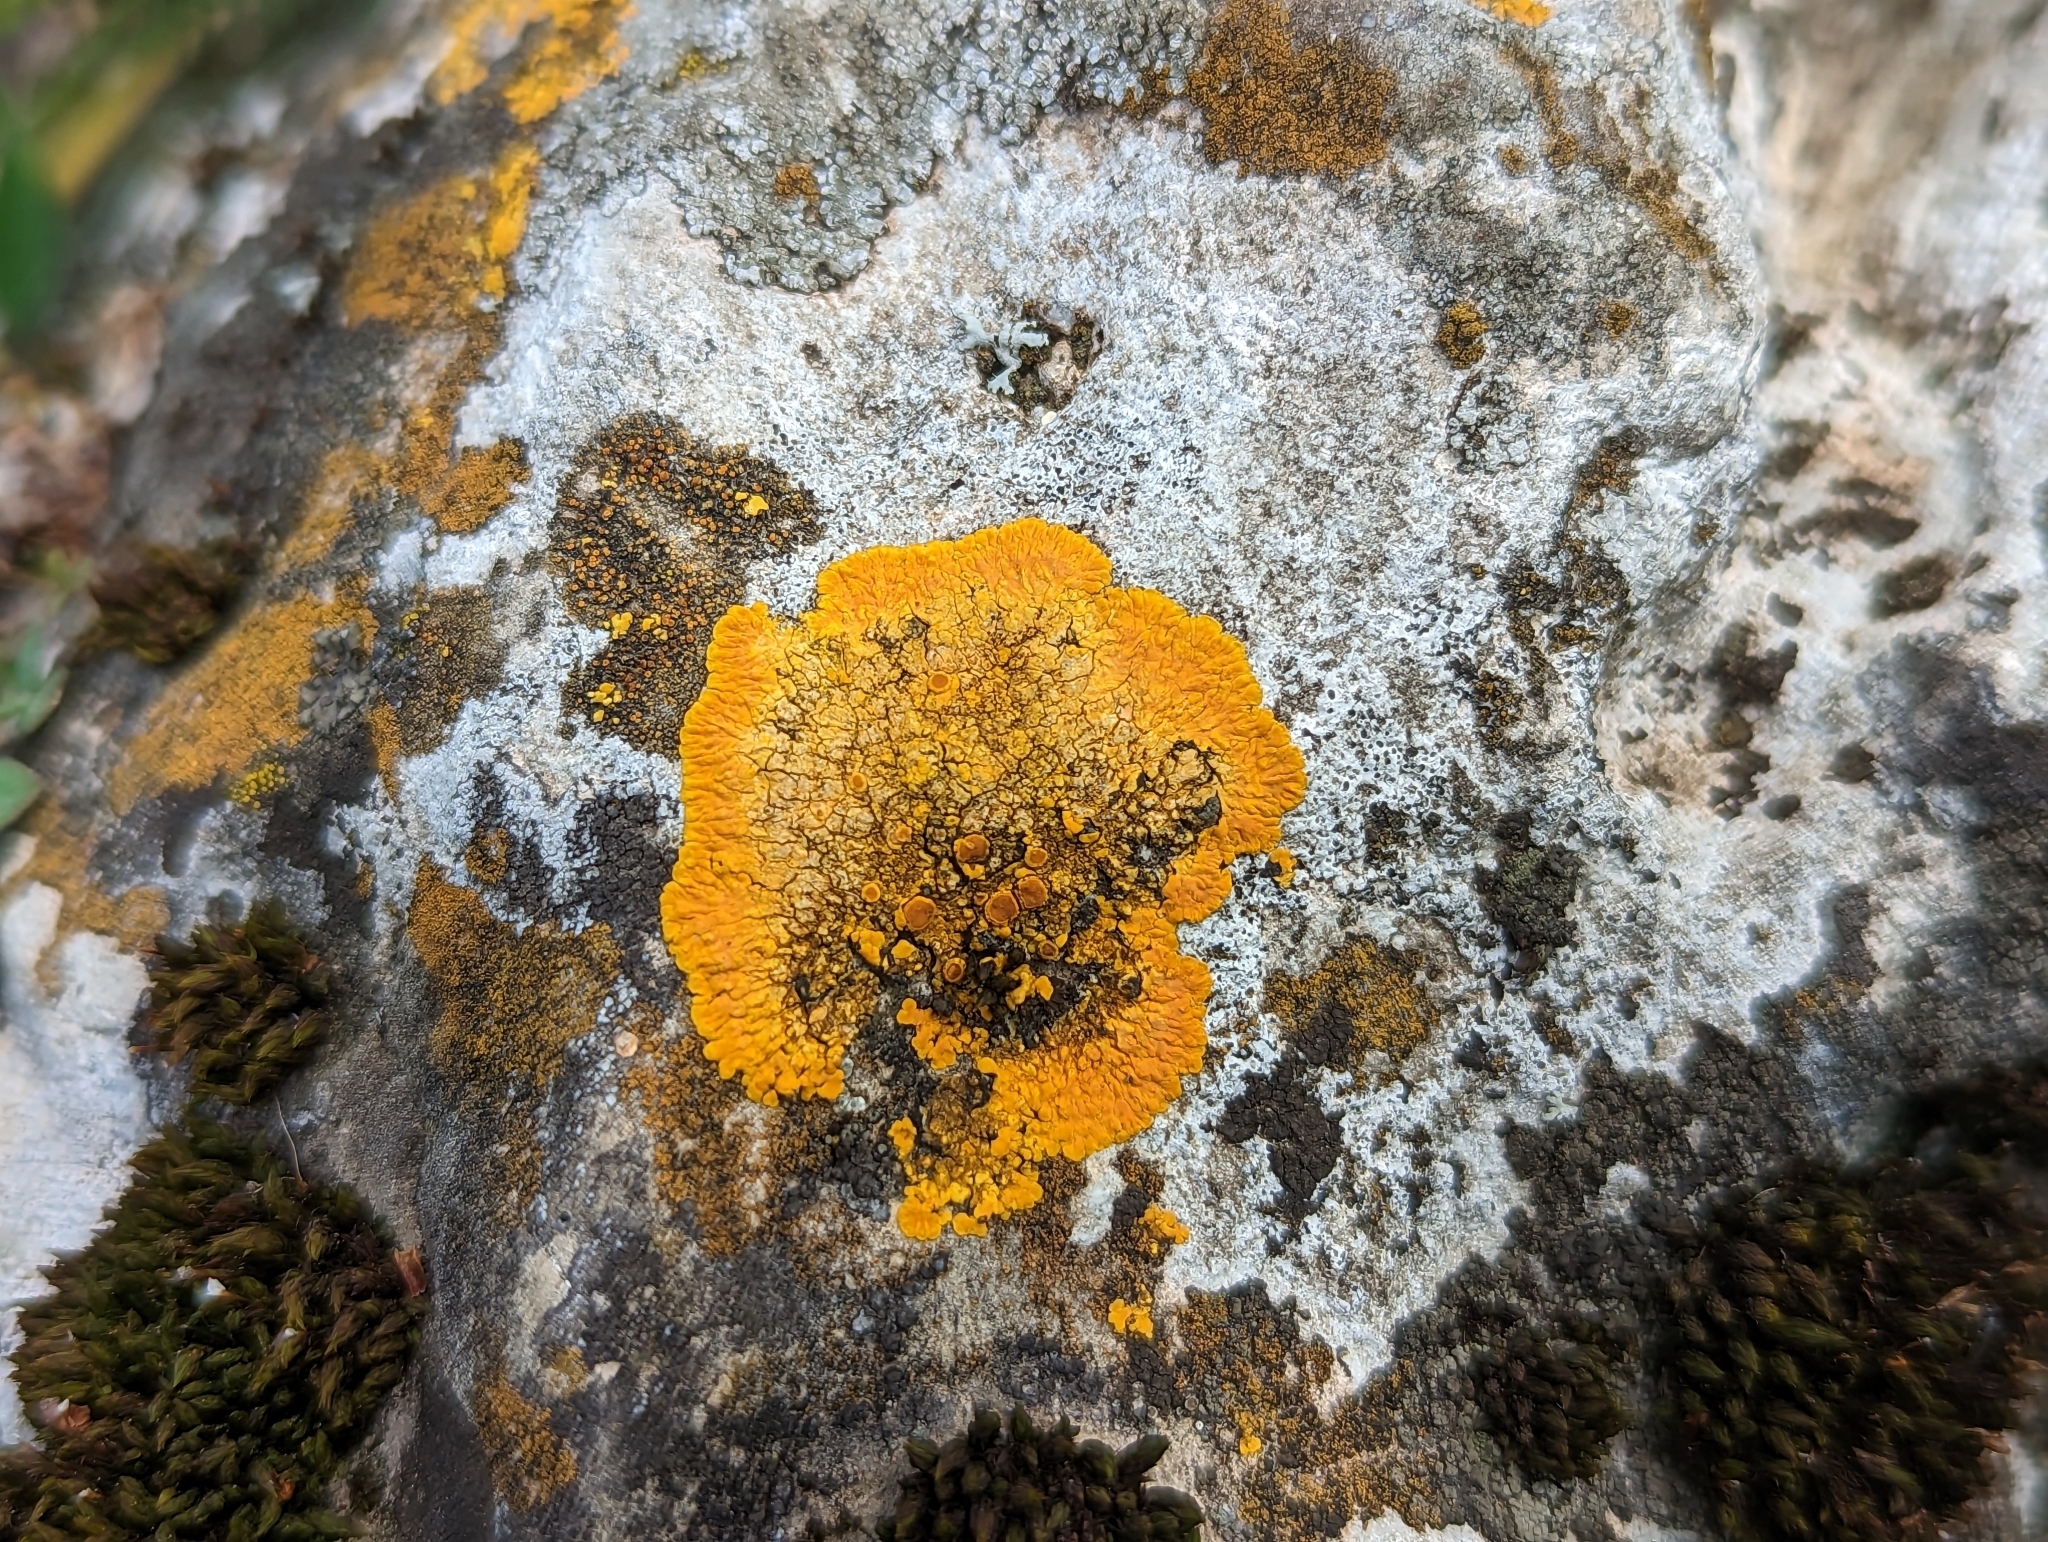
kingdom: Fungi
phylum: Ascomycota
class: Lecanoromycetes
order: Teloschistales
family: Teloschistaceae
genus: Variospora
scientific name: Variospora aurantia
